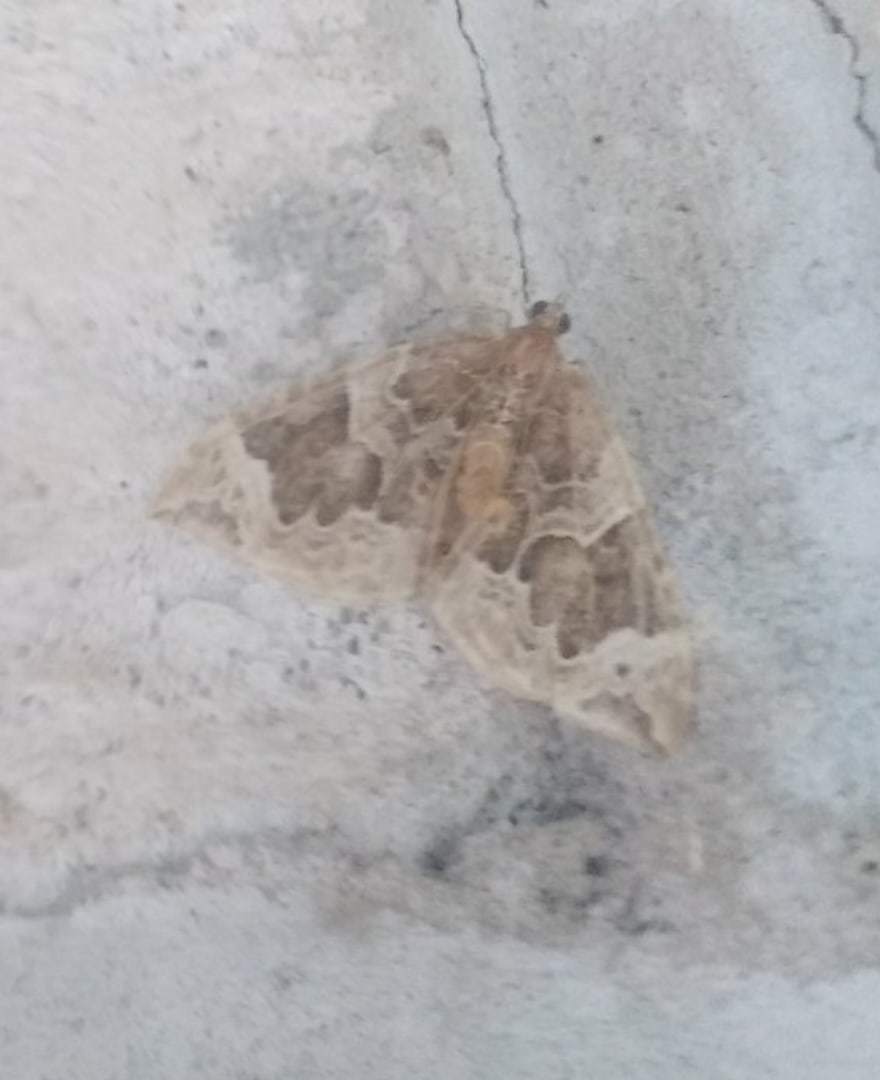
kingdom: Animalia
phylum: Arthropoda
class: Insecta
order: Lepidoptera
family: Geometridae
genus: Eulithis
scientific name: Eulithis prunata
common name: Phoenix
